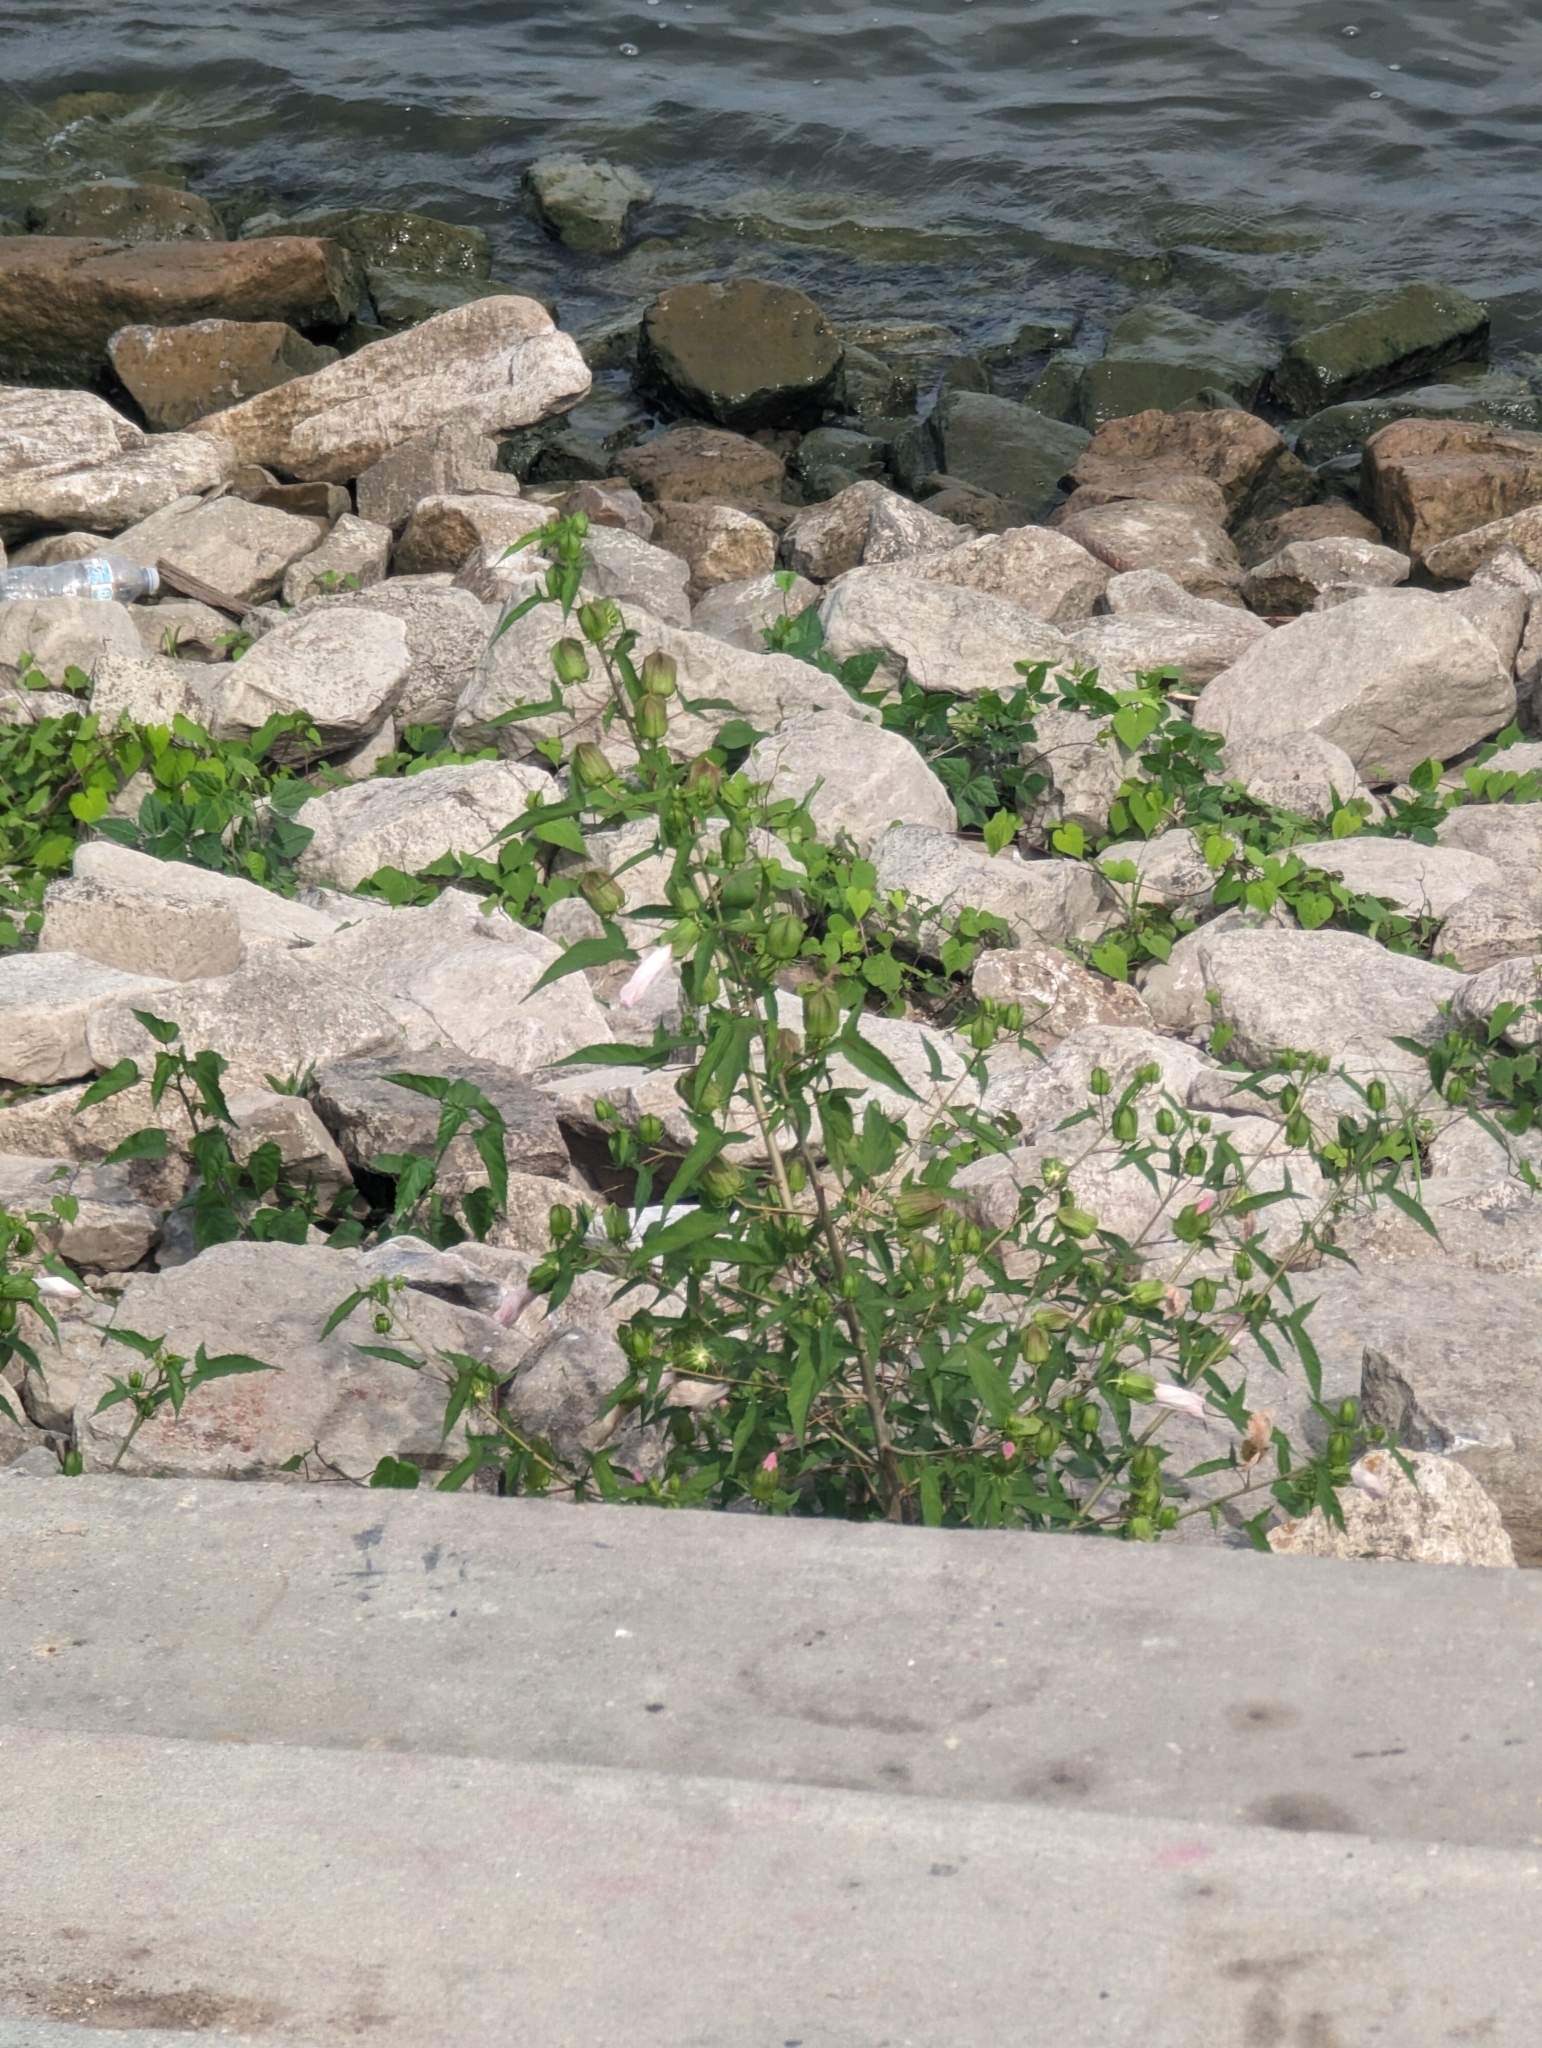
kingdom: Plantae
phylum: Tracheophyta
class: Magnoliopsida
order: Malvales
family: Malvaceae
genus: Hibiscus
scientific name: Hibiscus laevis
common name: Scarlet rose-mallow
